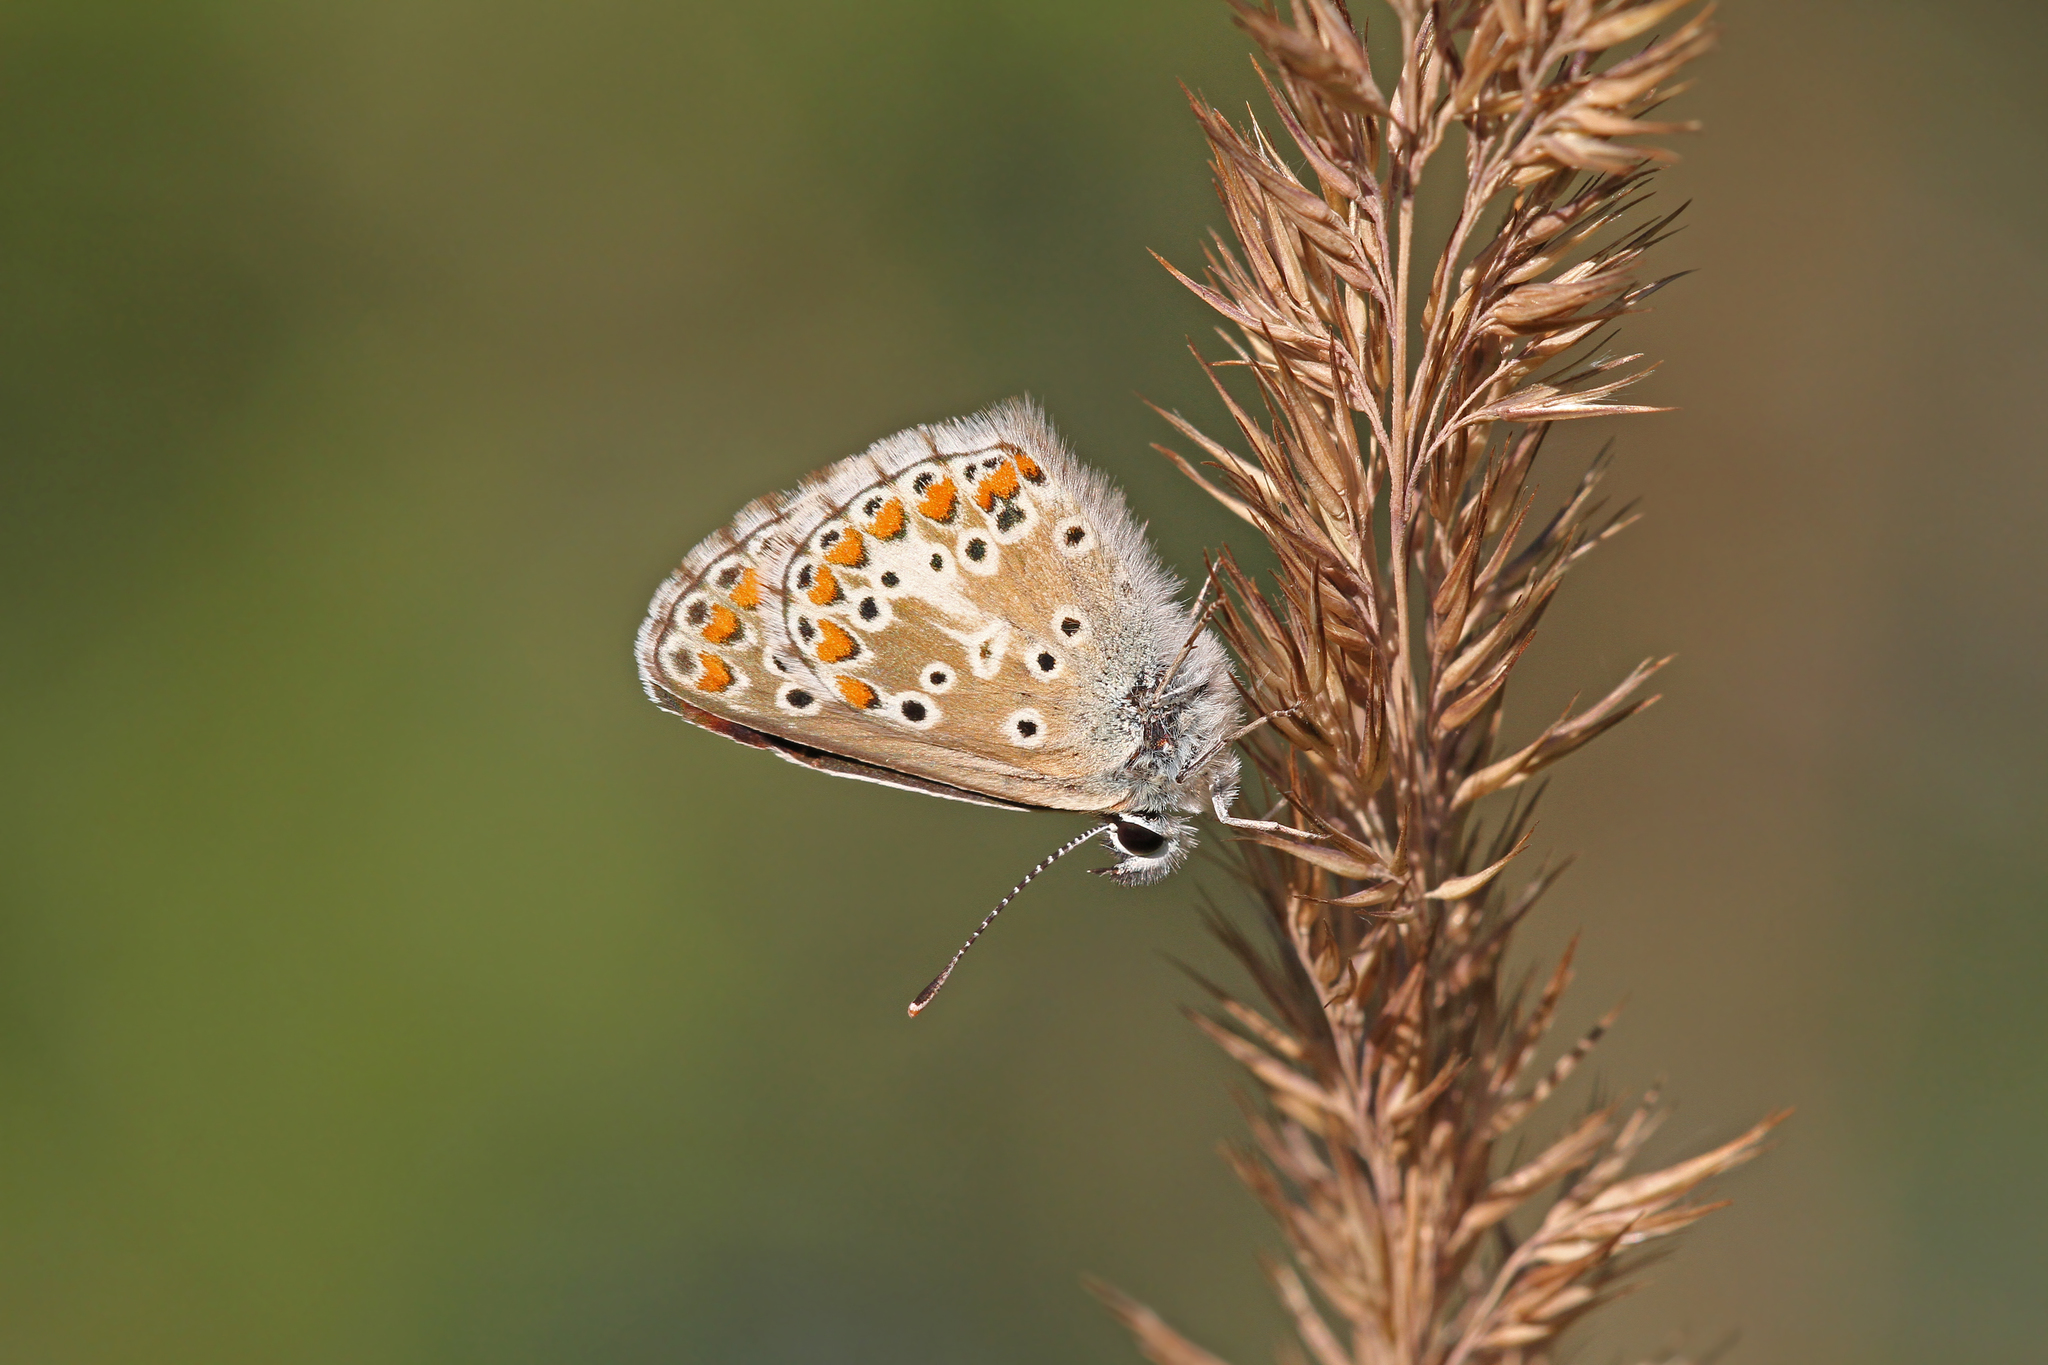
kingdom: Animalia
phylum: Arthropoda
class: Insecta
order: Lepidoptera
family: Lycaenidae
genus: Aricia
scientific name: Aricia agestis
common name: Brown argus
